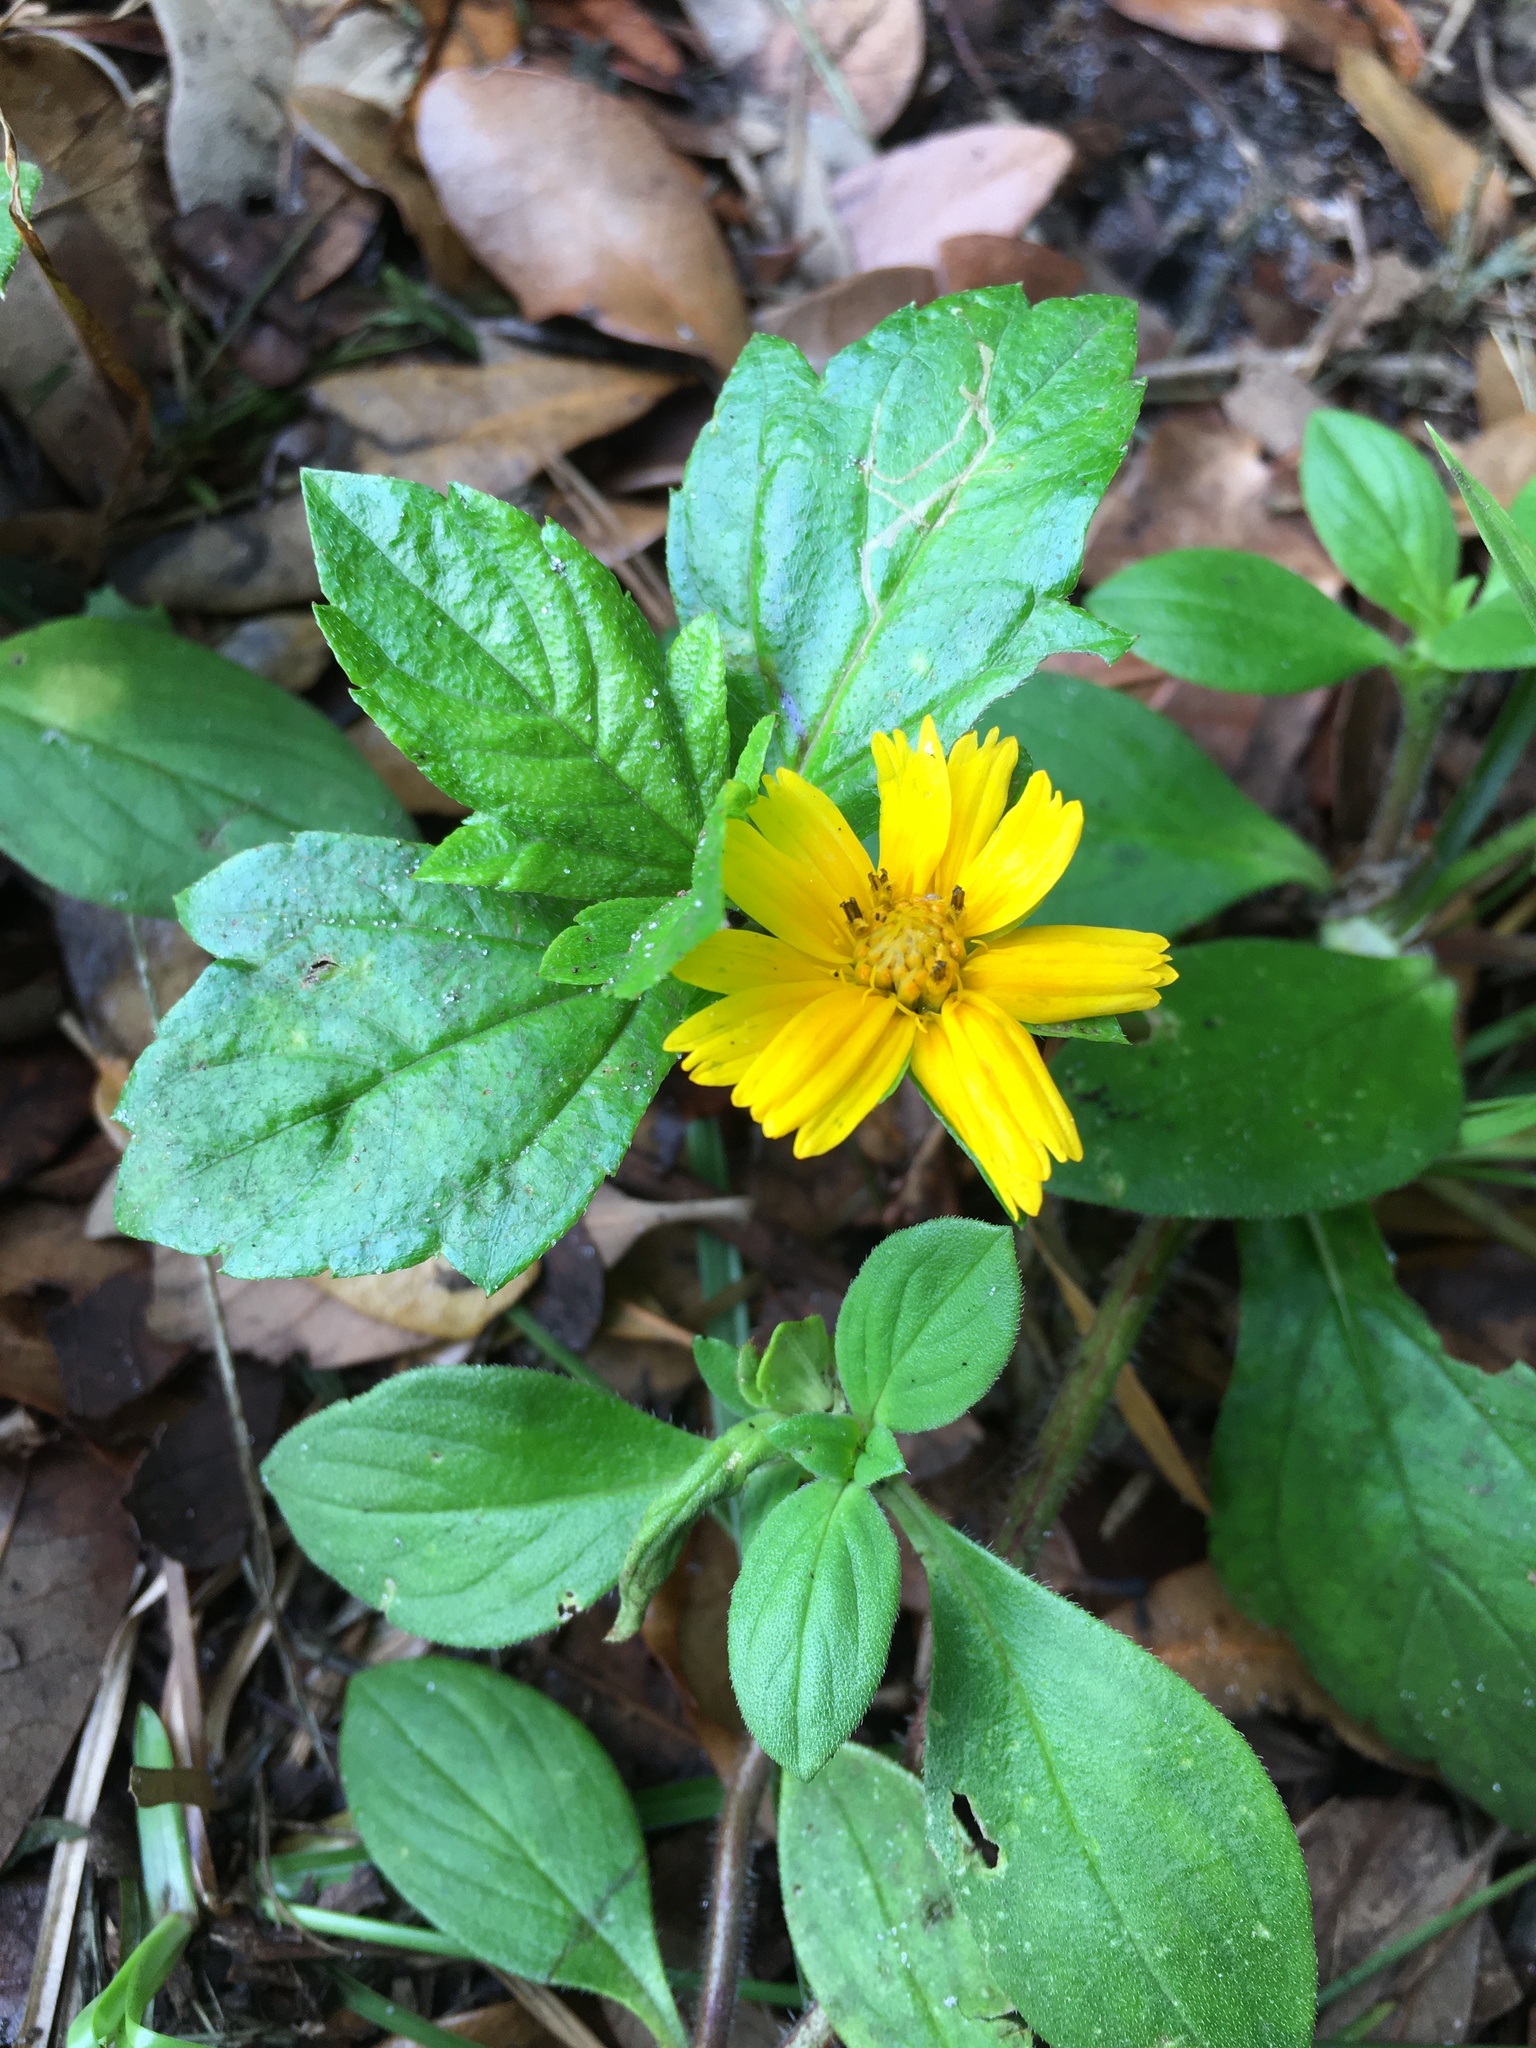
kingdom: Plantae
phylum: Tracheophyta
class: Magnoliopsida
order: Asterales
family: Asteraceae
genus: Sphagneticola
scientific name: Sphagneticola trilobata
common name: Bay biscayne creeping-oxeye
